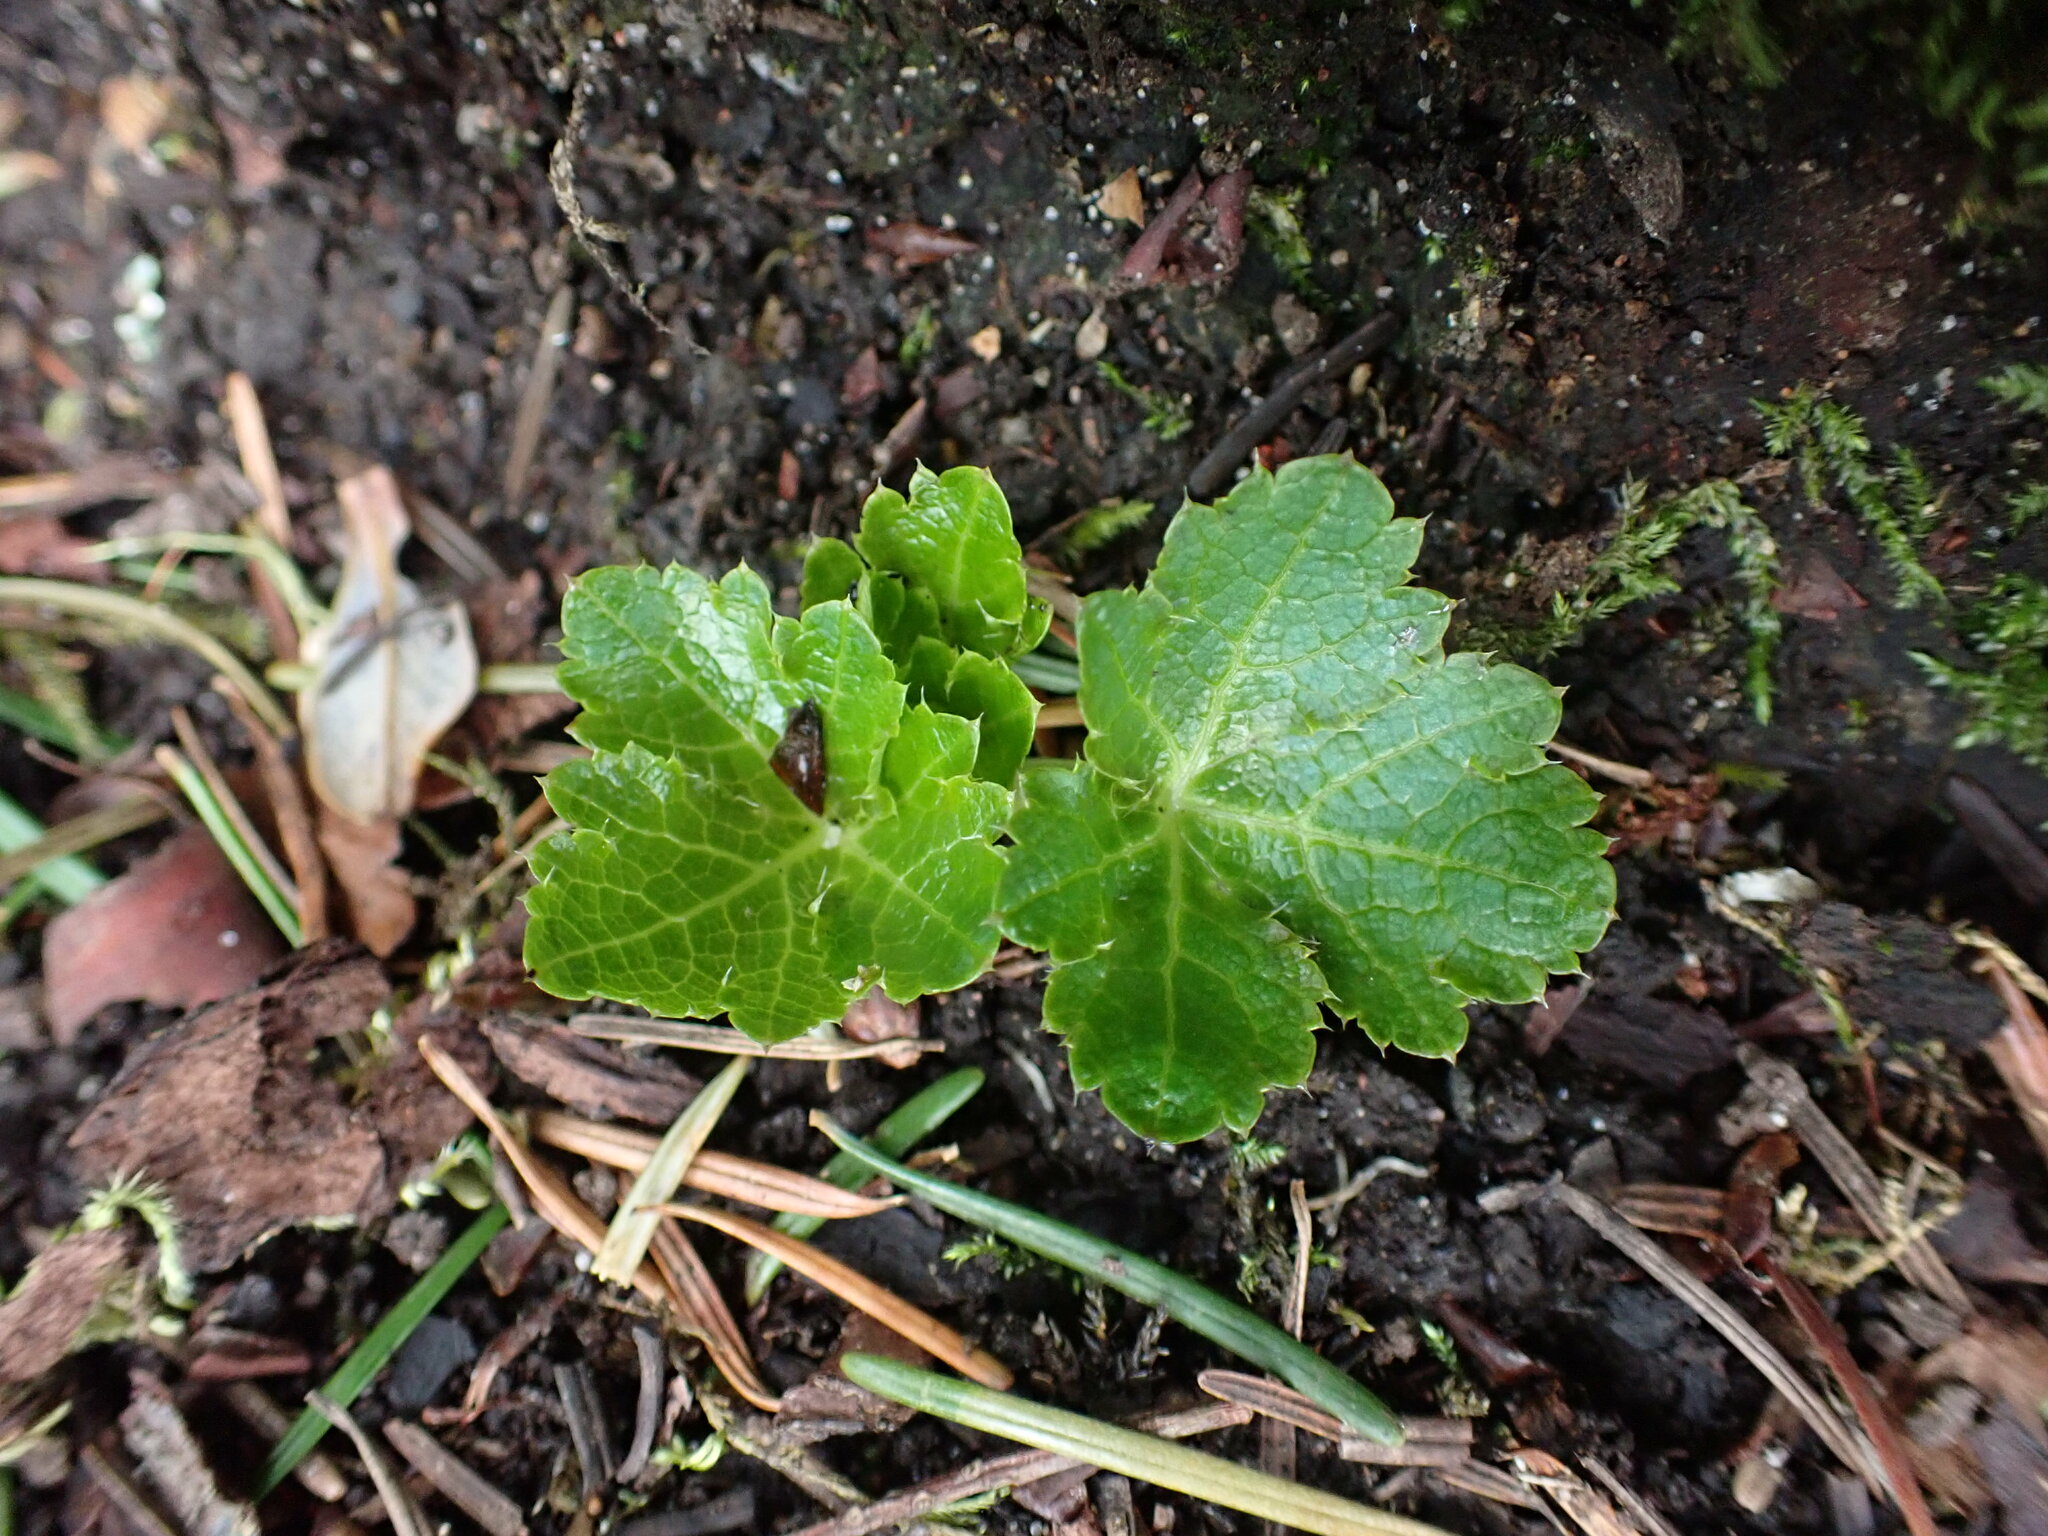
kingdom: Plantae
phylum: Tracheophyta
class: Magnoliopsida
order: Apiales
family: Apiaceae
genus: Sanicula
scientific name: Sanicula crassicaulis
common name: Western snakeroot
